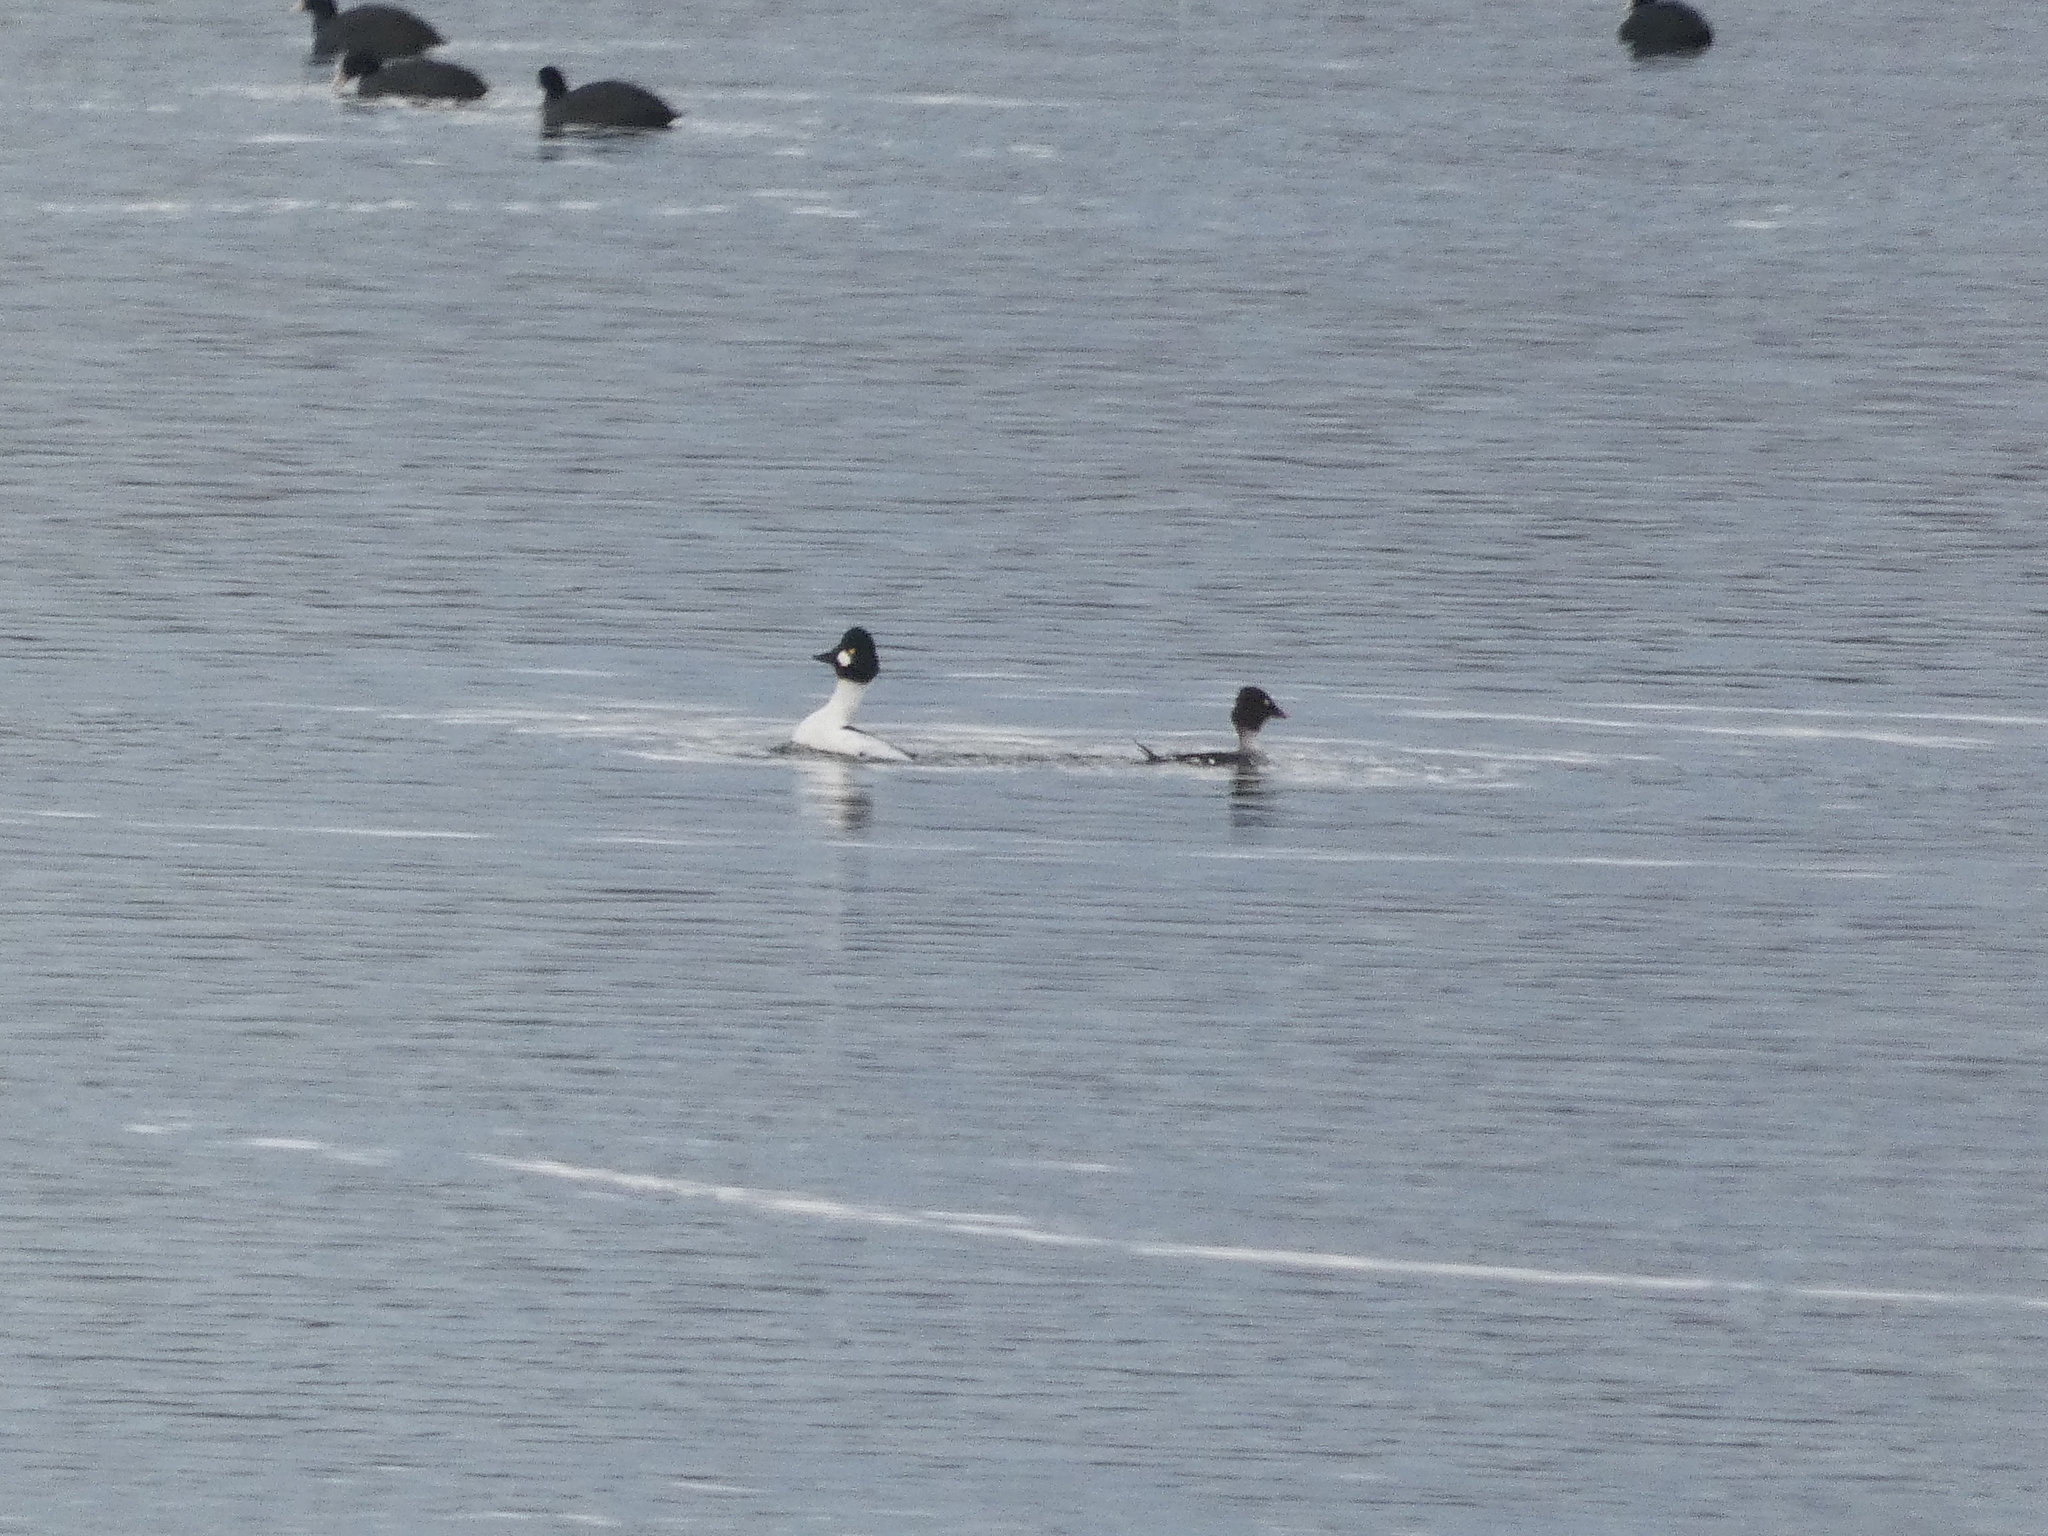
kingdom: Animalia
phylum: Chordata
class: Aves
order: Anseriformes
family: Anatidae
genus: Bucephala
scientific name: Bucephala clangula
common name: Common goldeneye
